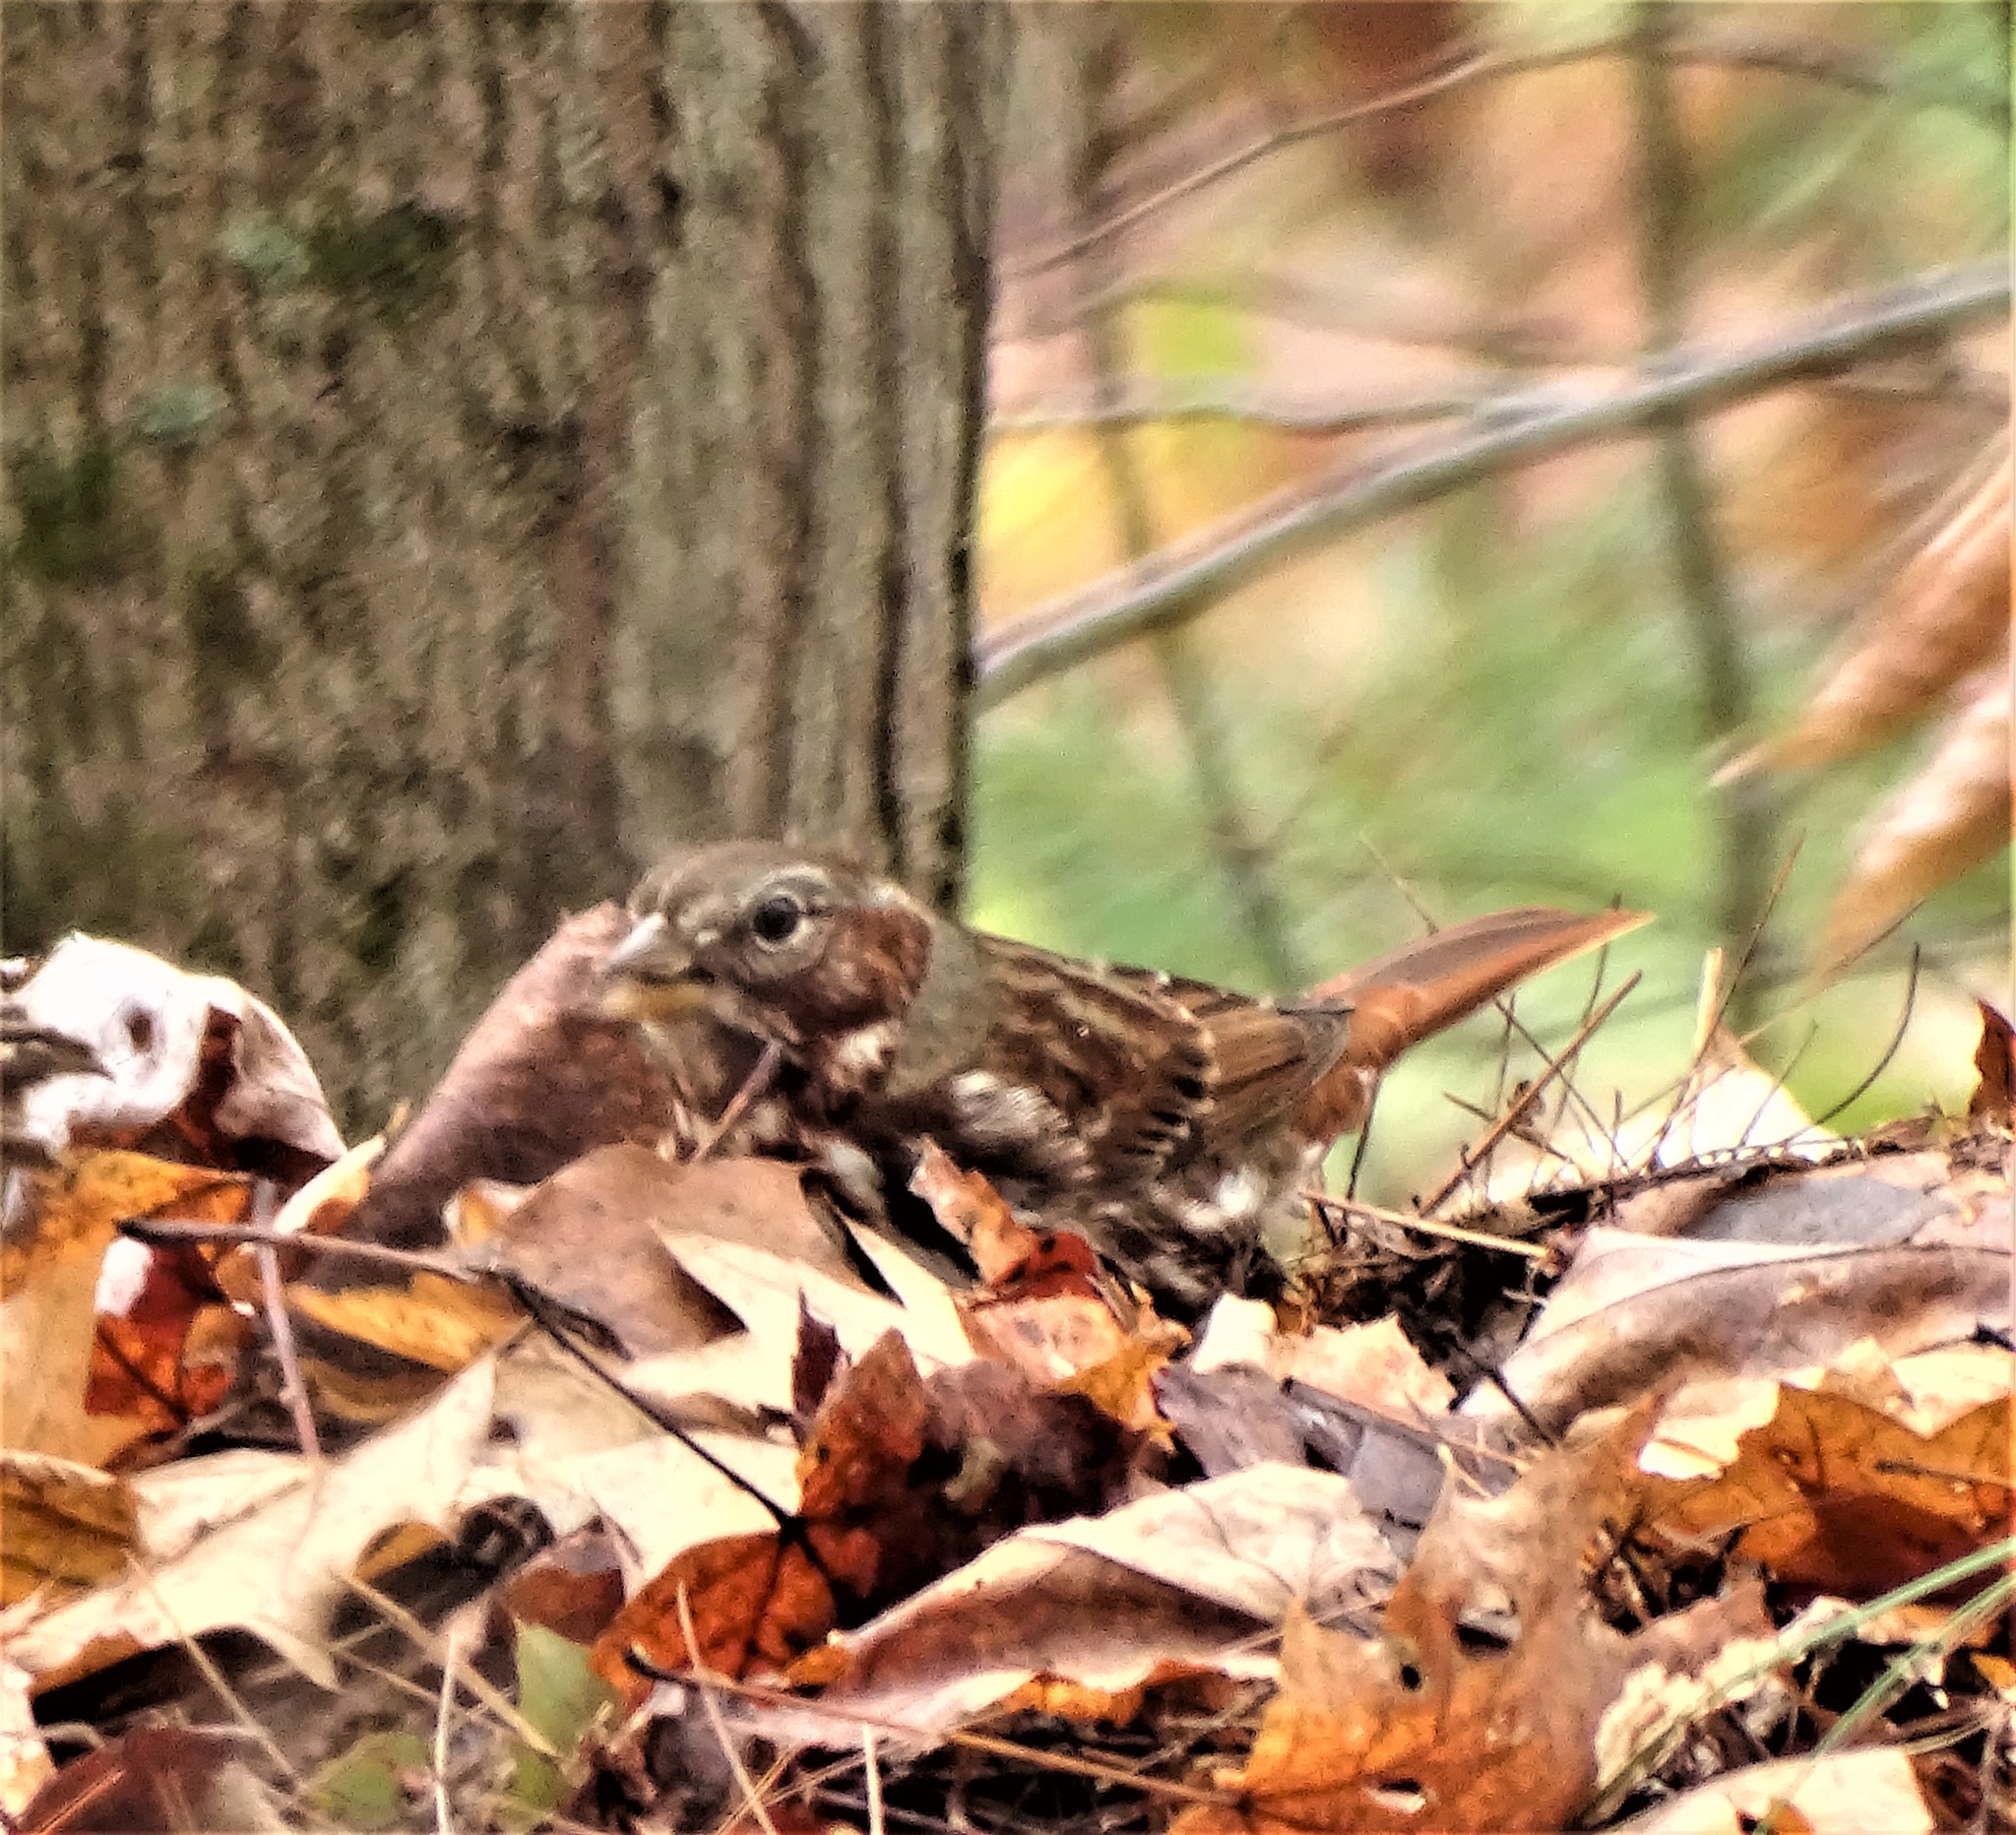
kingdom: Animalia
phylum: Chordata
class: Aves
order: Passeriformes
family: Passerellidae
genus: Passerella
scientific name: Passerella iliaca
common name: Fox sparrow
